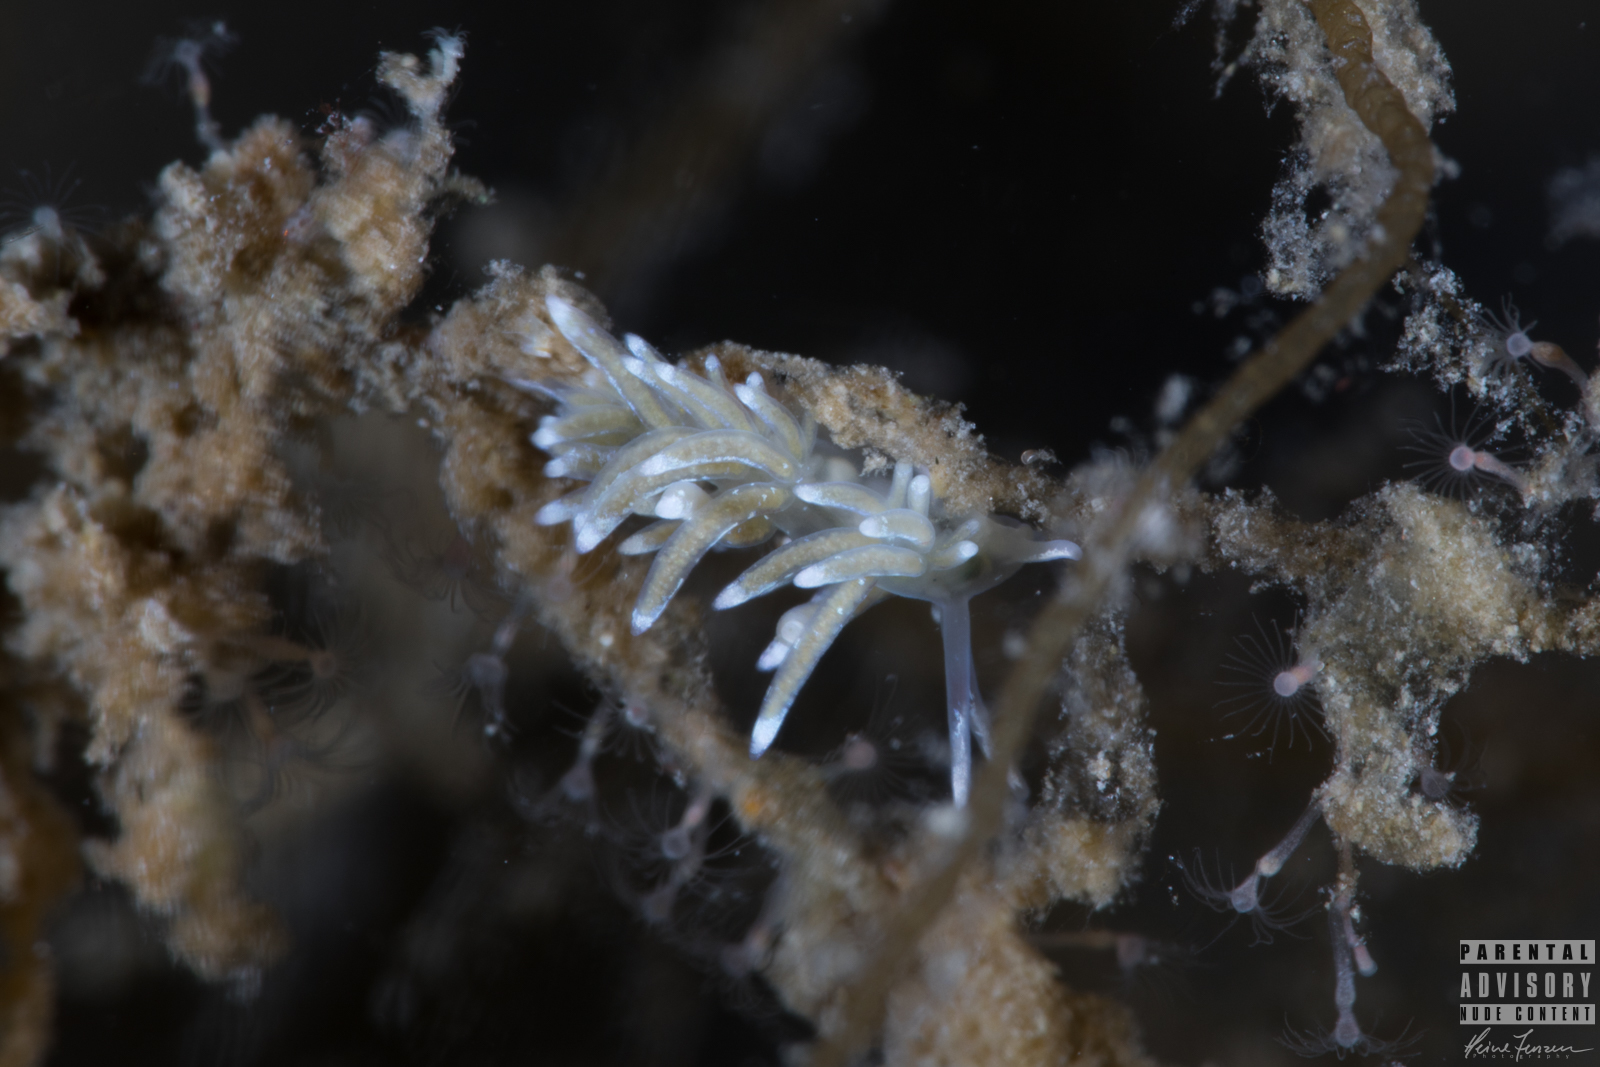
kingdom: Animalia
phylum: Mollusca
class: Gastropoda
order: Nudibranchia
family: Trinchesiidae
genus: Rubramoena
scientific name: Rubramoena amoena
